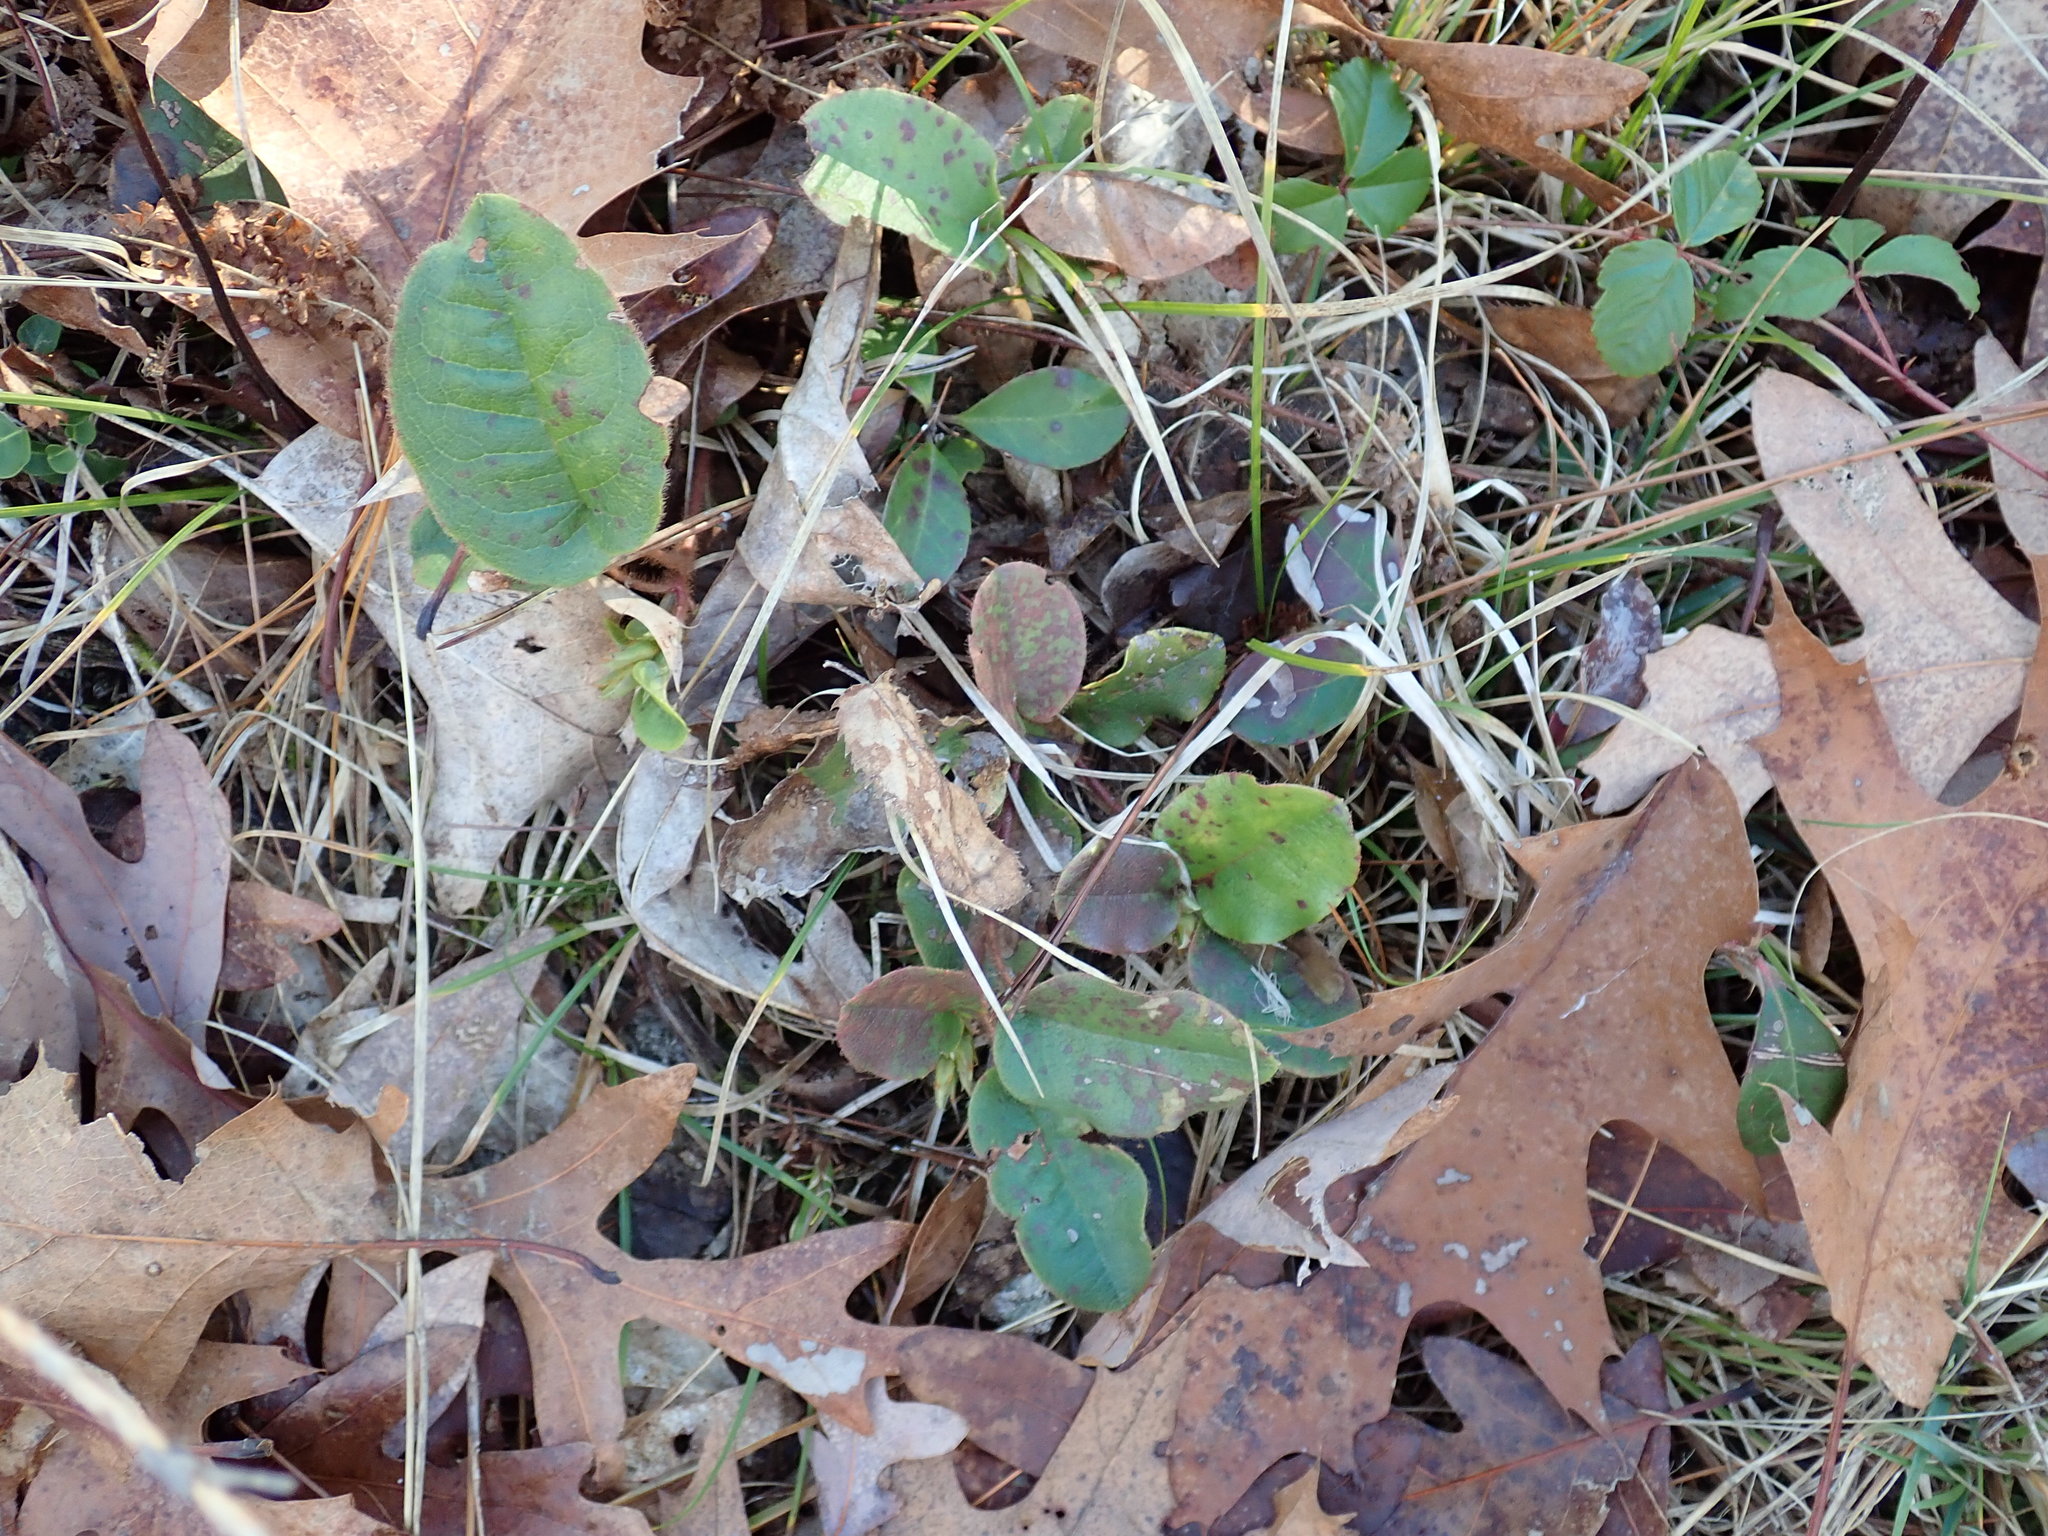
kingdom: Plantae
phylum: Tracheophyta
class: Magnoliopsida
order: Ericales
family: Ericaceae
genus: Epigaea
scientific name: Epigaea repens
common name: Gravelroot
